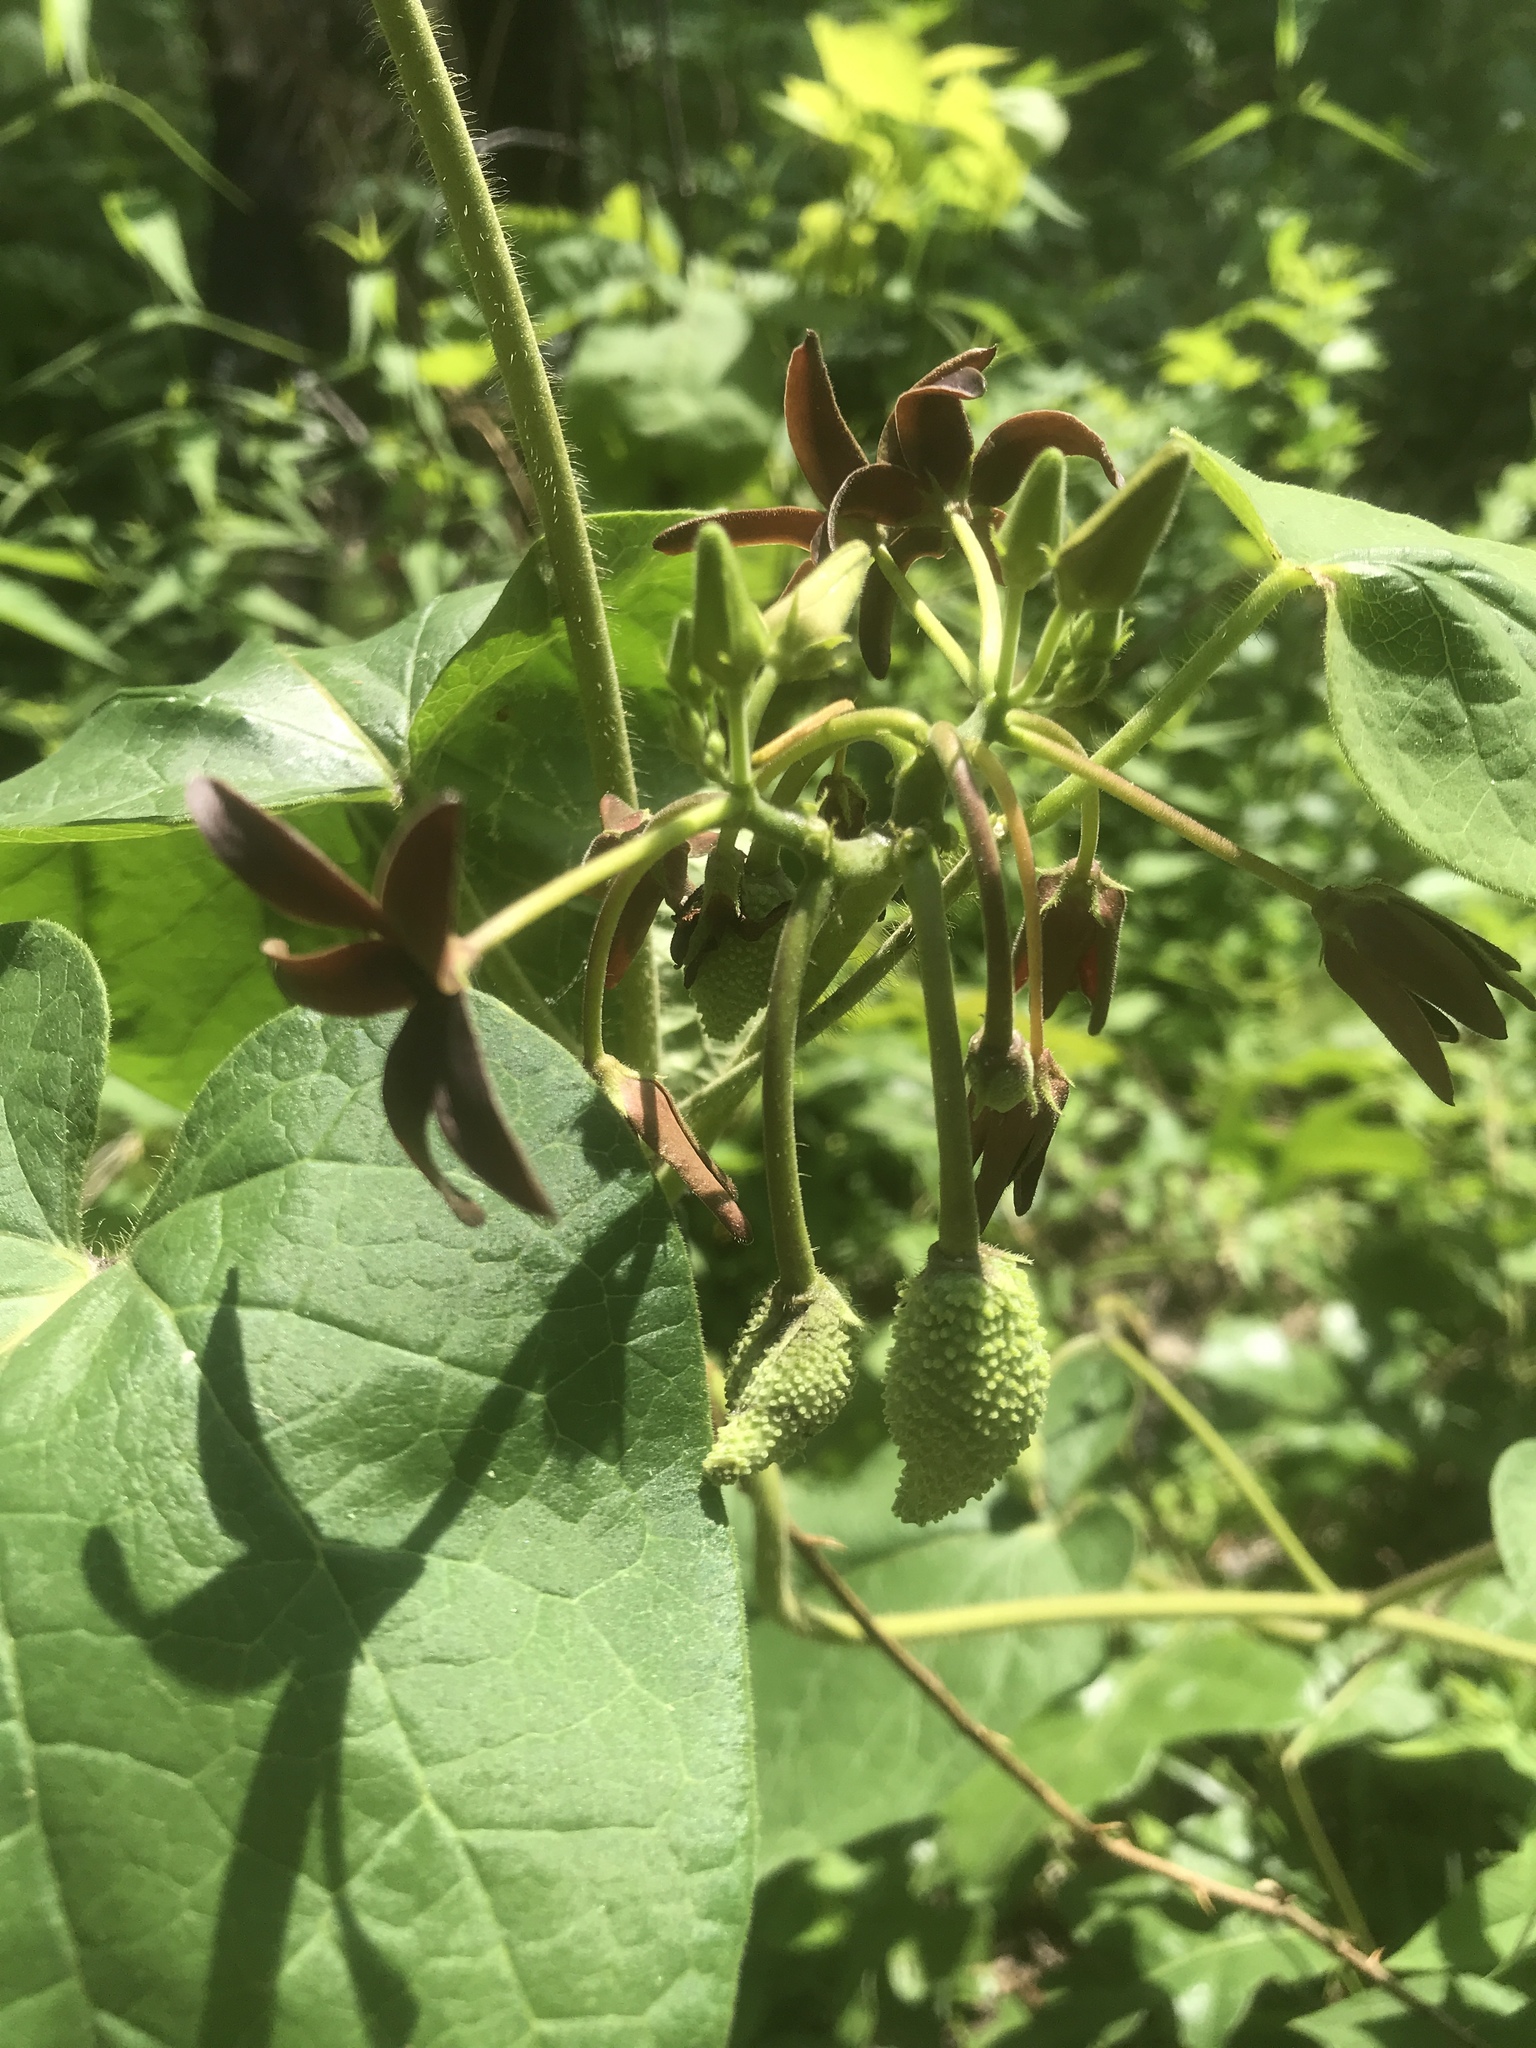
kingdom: Plantae
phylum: Tracheophyta
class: Magnoliopsida
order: Gentianales
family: Apocynaceae
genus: Matelea
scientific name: Matelea carolinensis
